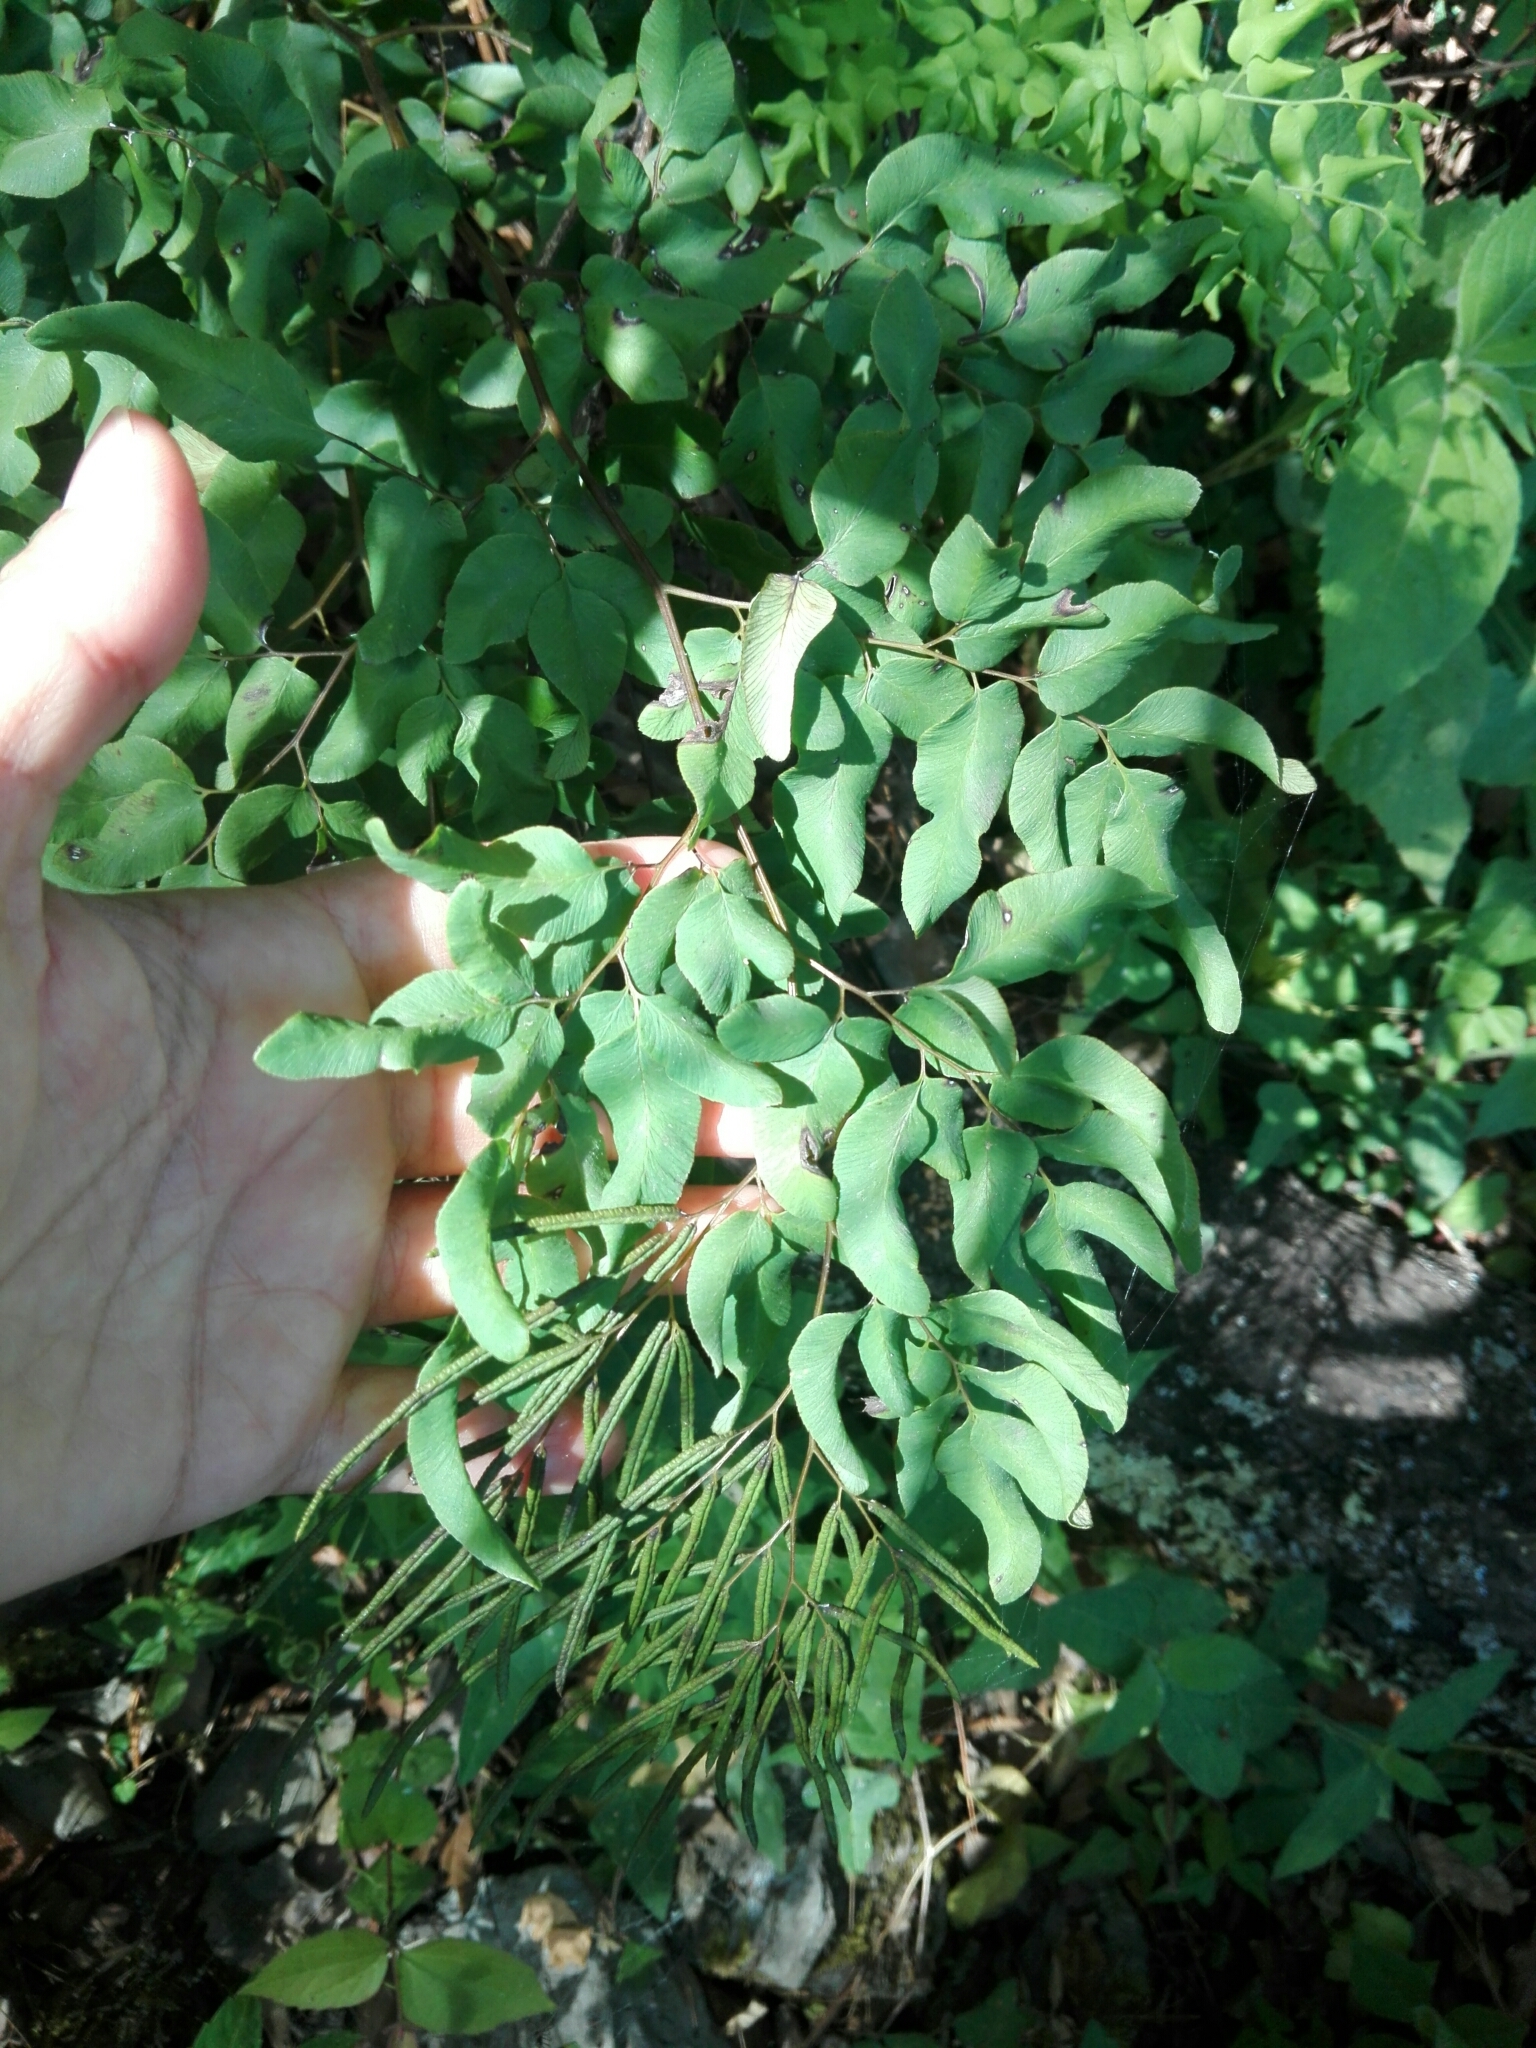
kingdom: Plantae
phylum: Tracheophyta
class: Polypodiopsida
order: Polypodiales
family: Pteridaceae
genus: Llavea
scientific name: Llavea cordifolia
